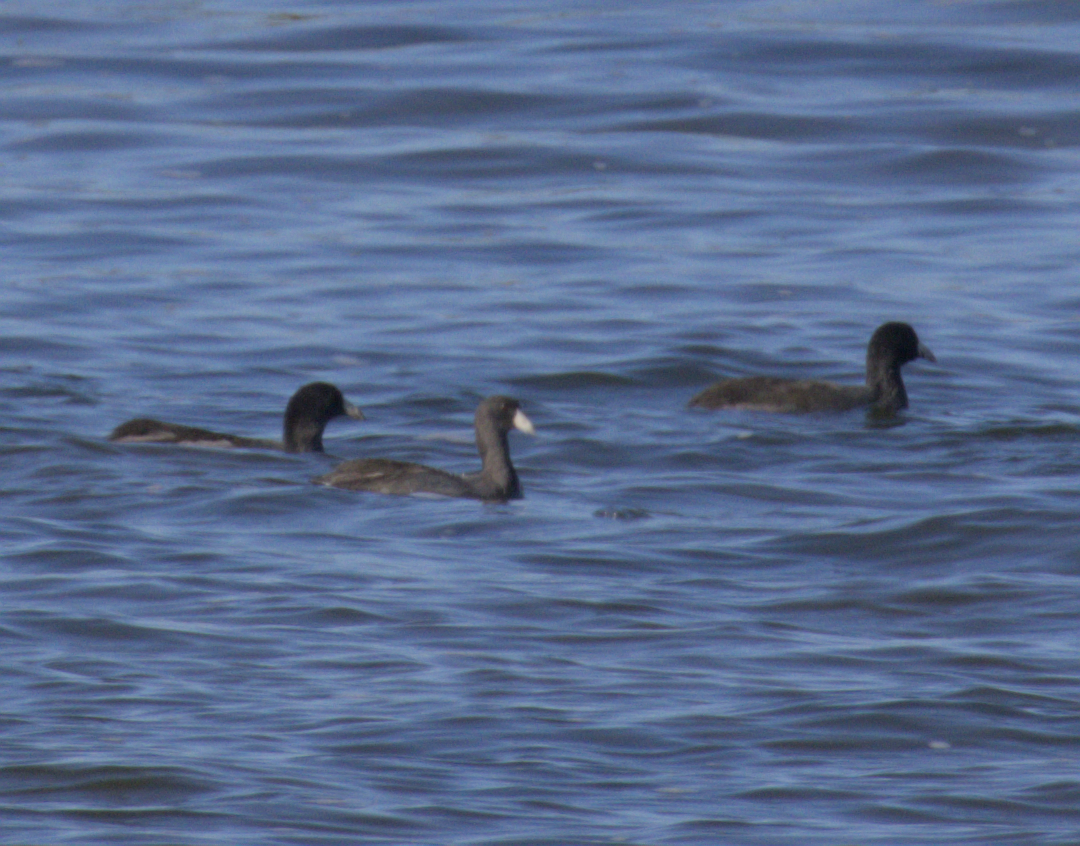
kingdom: Animalia
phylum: Chordata
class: Aves
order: Gruiformes
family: Rallidae
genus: Fulica
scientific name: Fulica americana
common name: American coot
